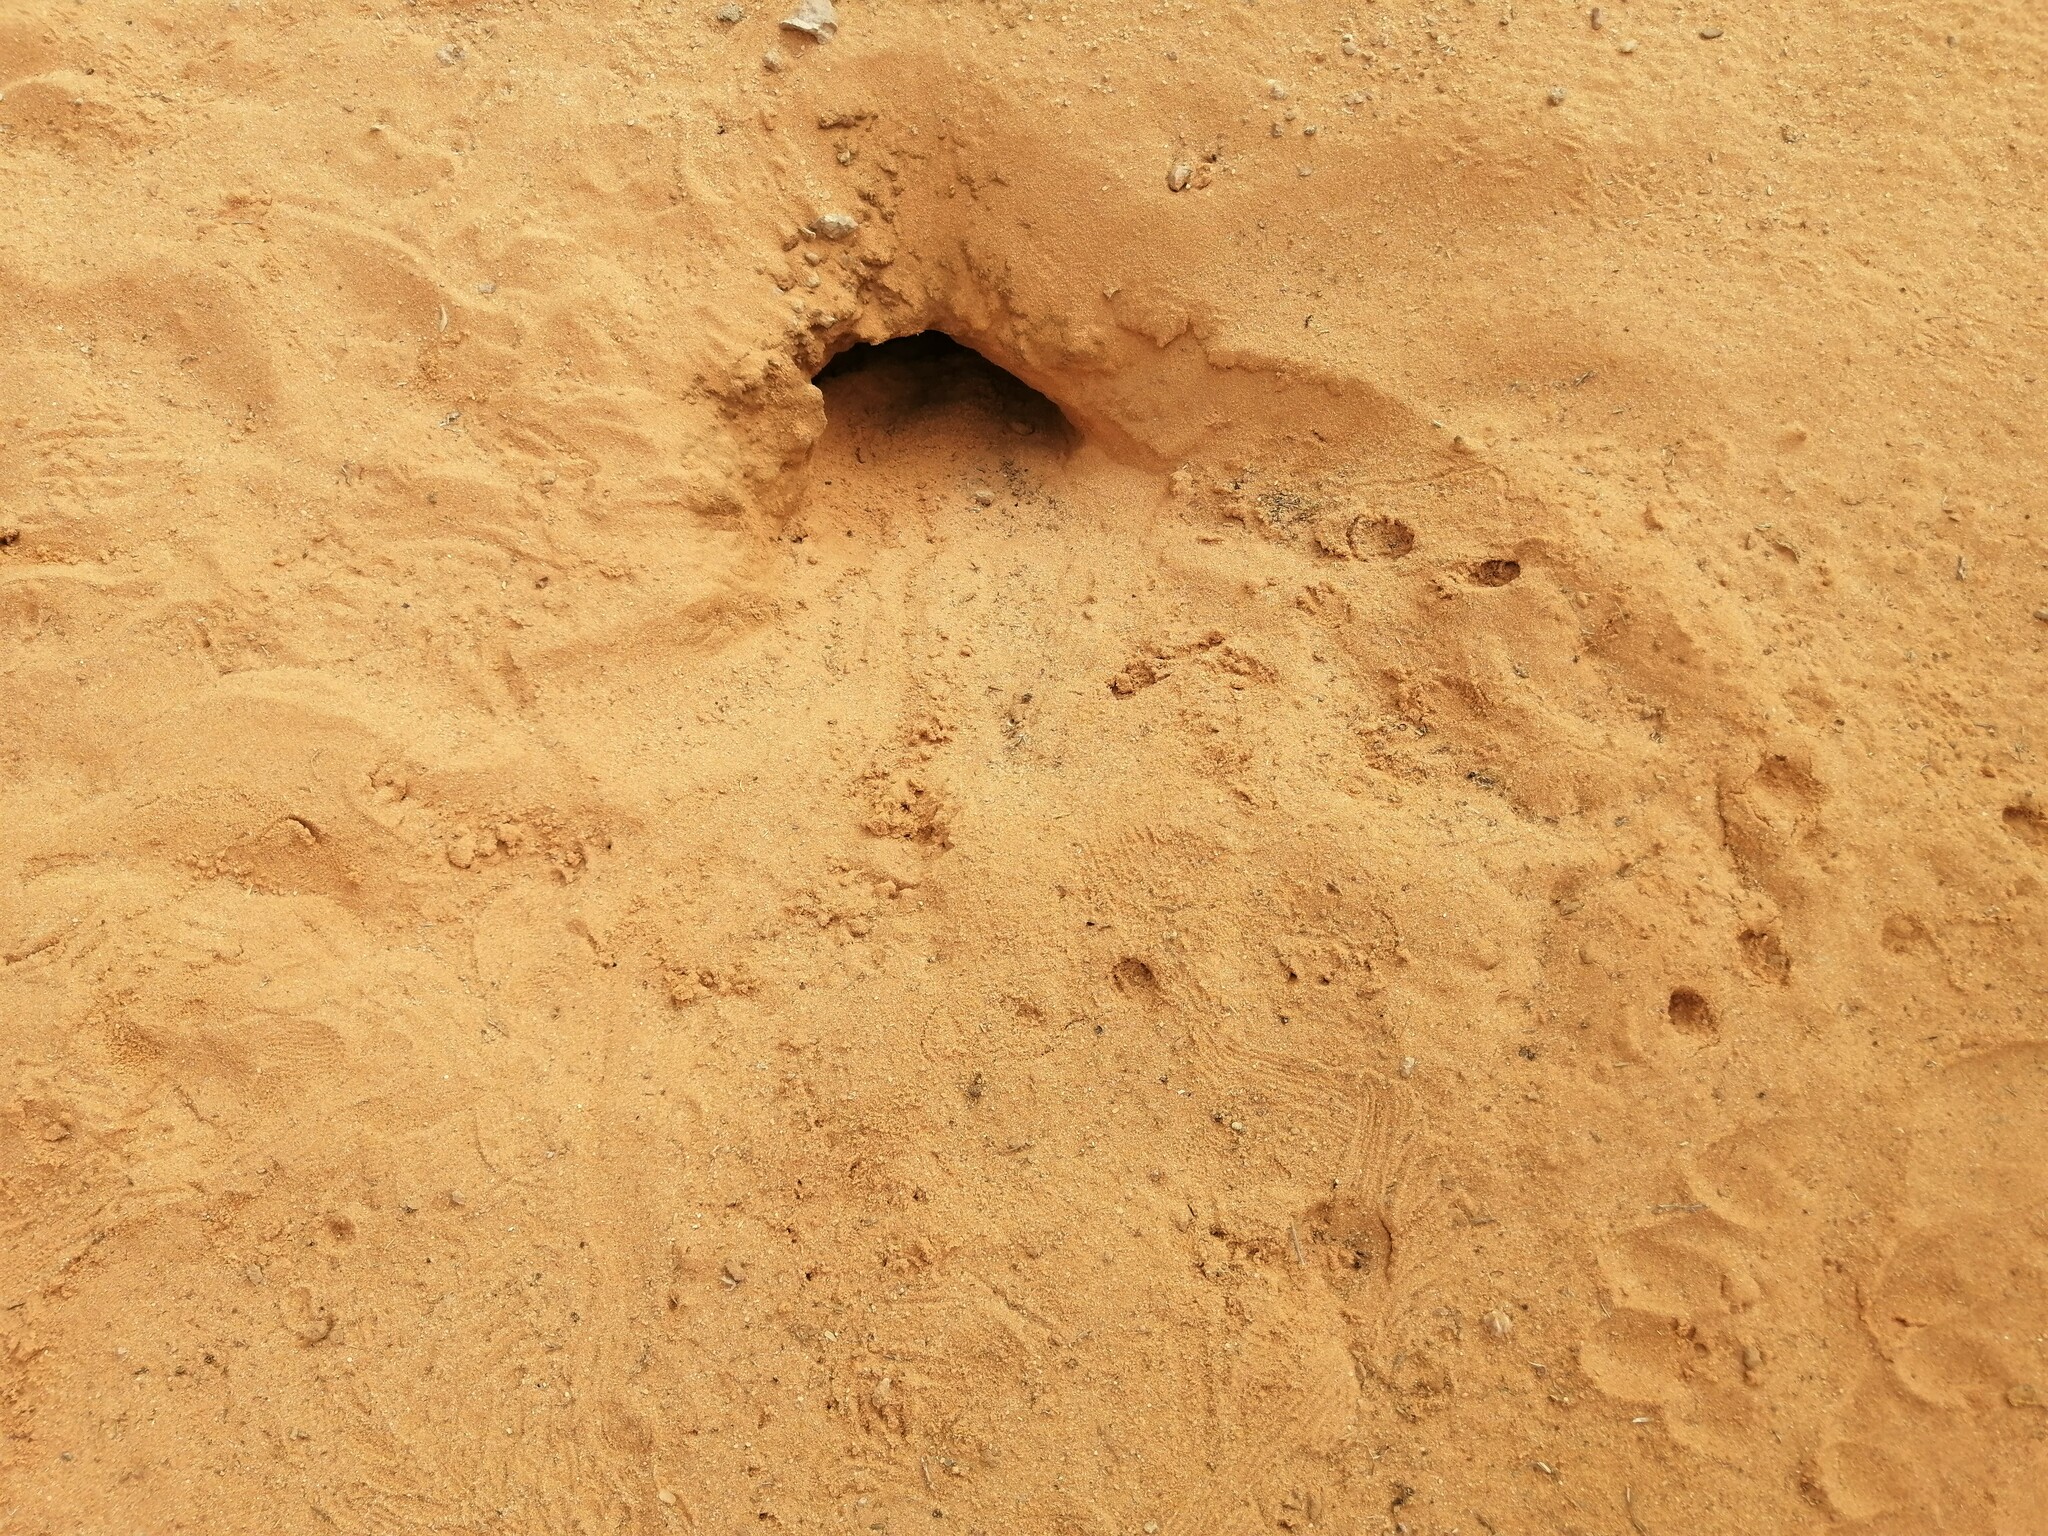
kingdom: Animalia
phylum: Chordata
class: Squamata
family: Agamidae
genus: Uromastyx
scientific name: Uromastyx aegyptia
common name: Egyptian mastigure
